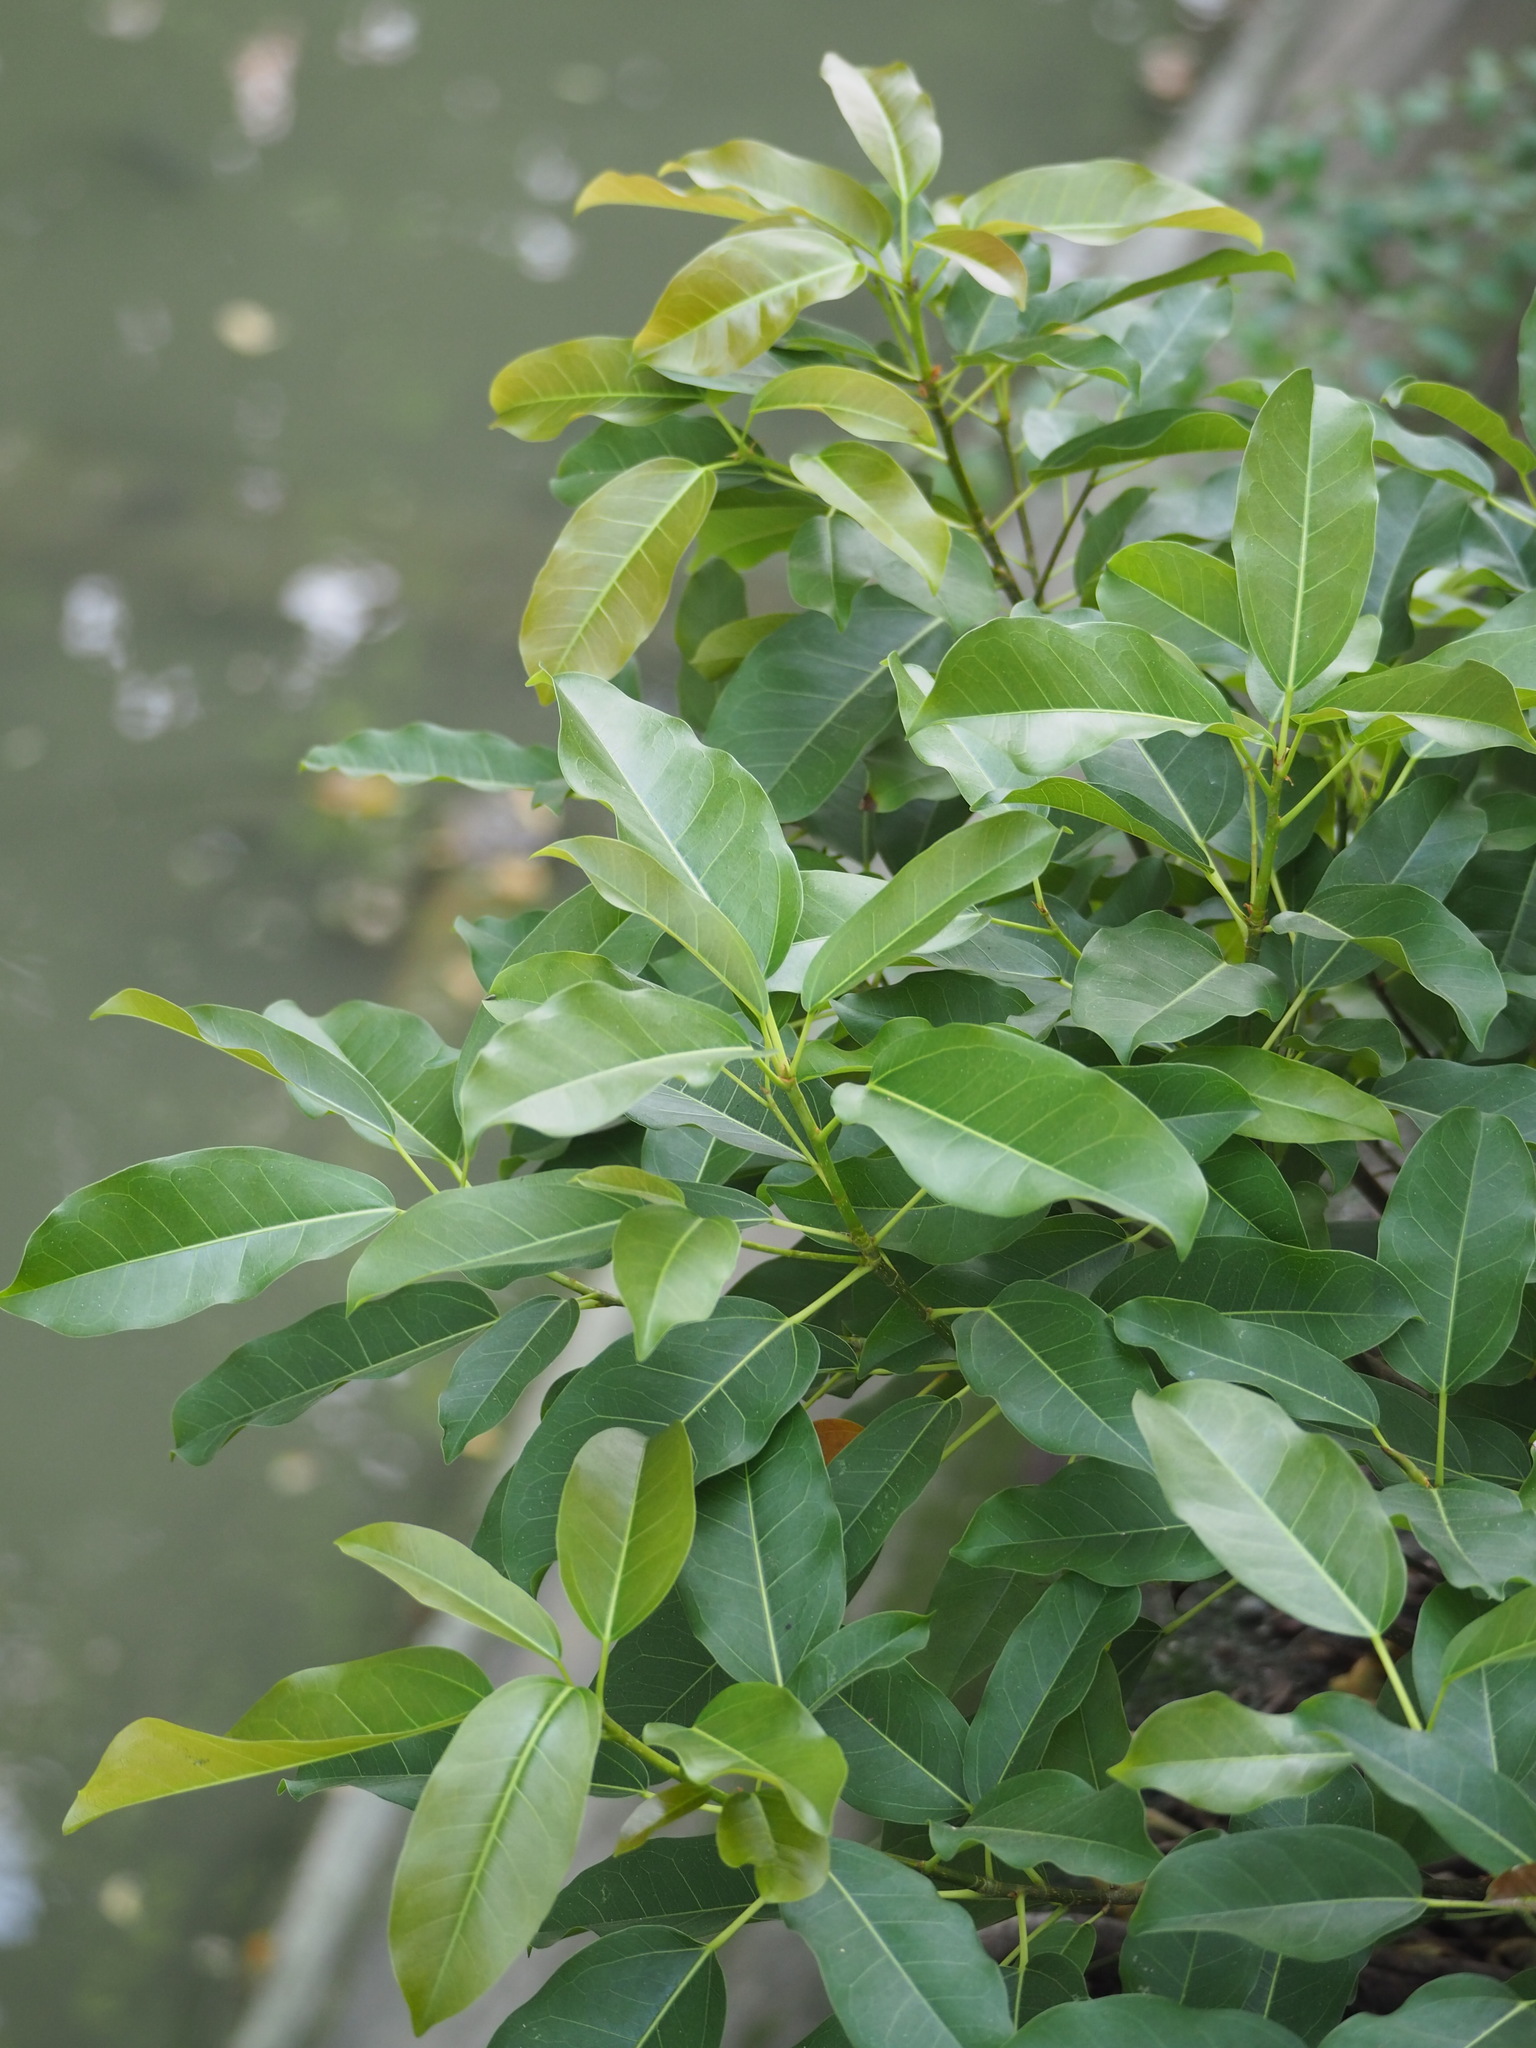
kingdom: Plantae
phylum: Tracheophyta
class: Magnoliopsida
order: Rosales
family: Moraceae
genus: Ficus
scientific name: Ficus subpisocarpa
